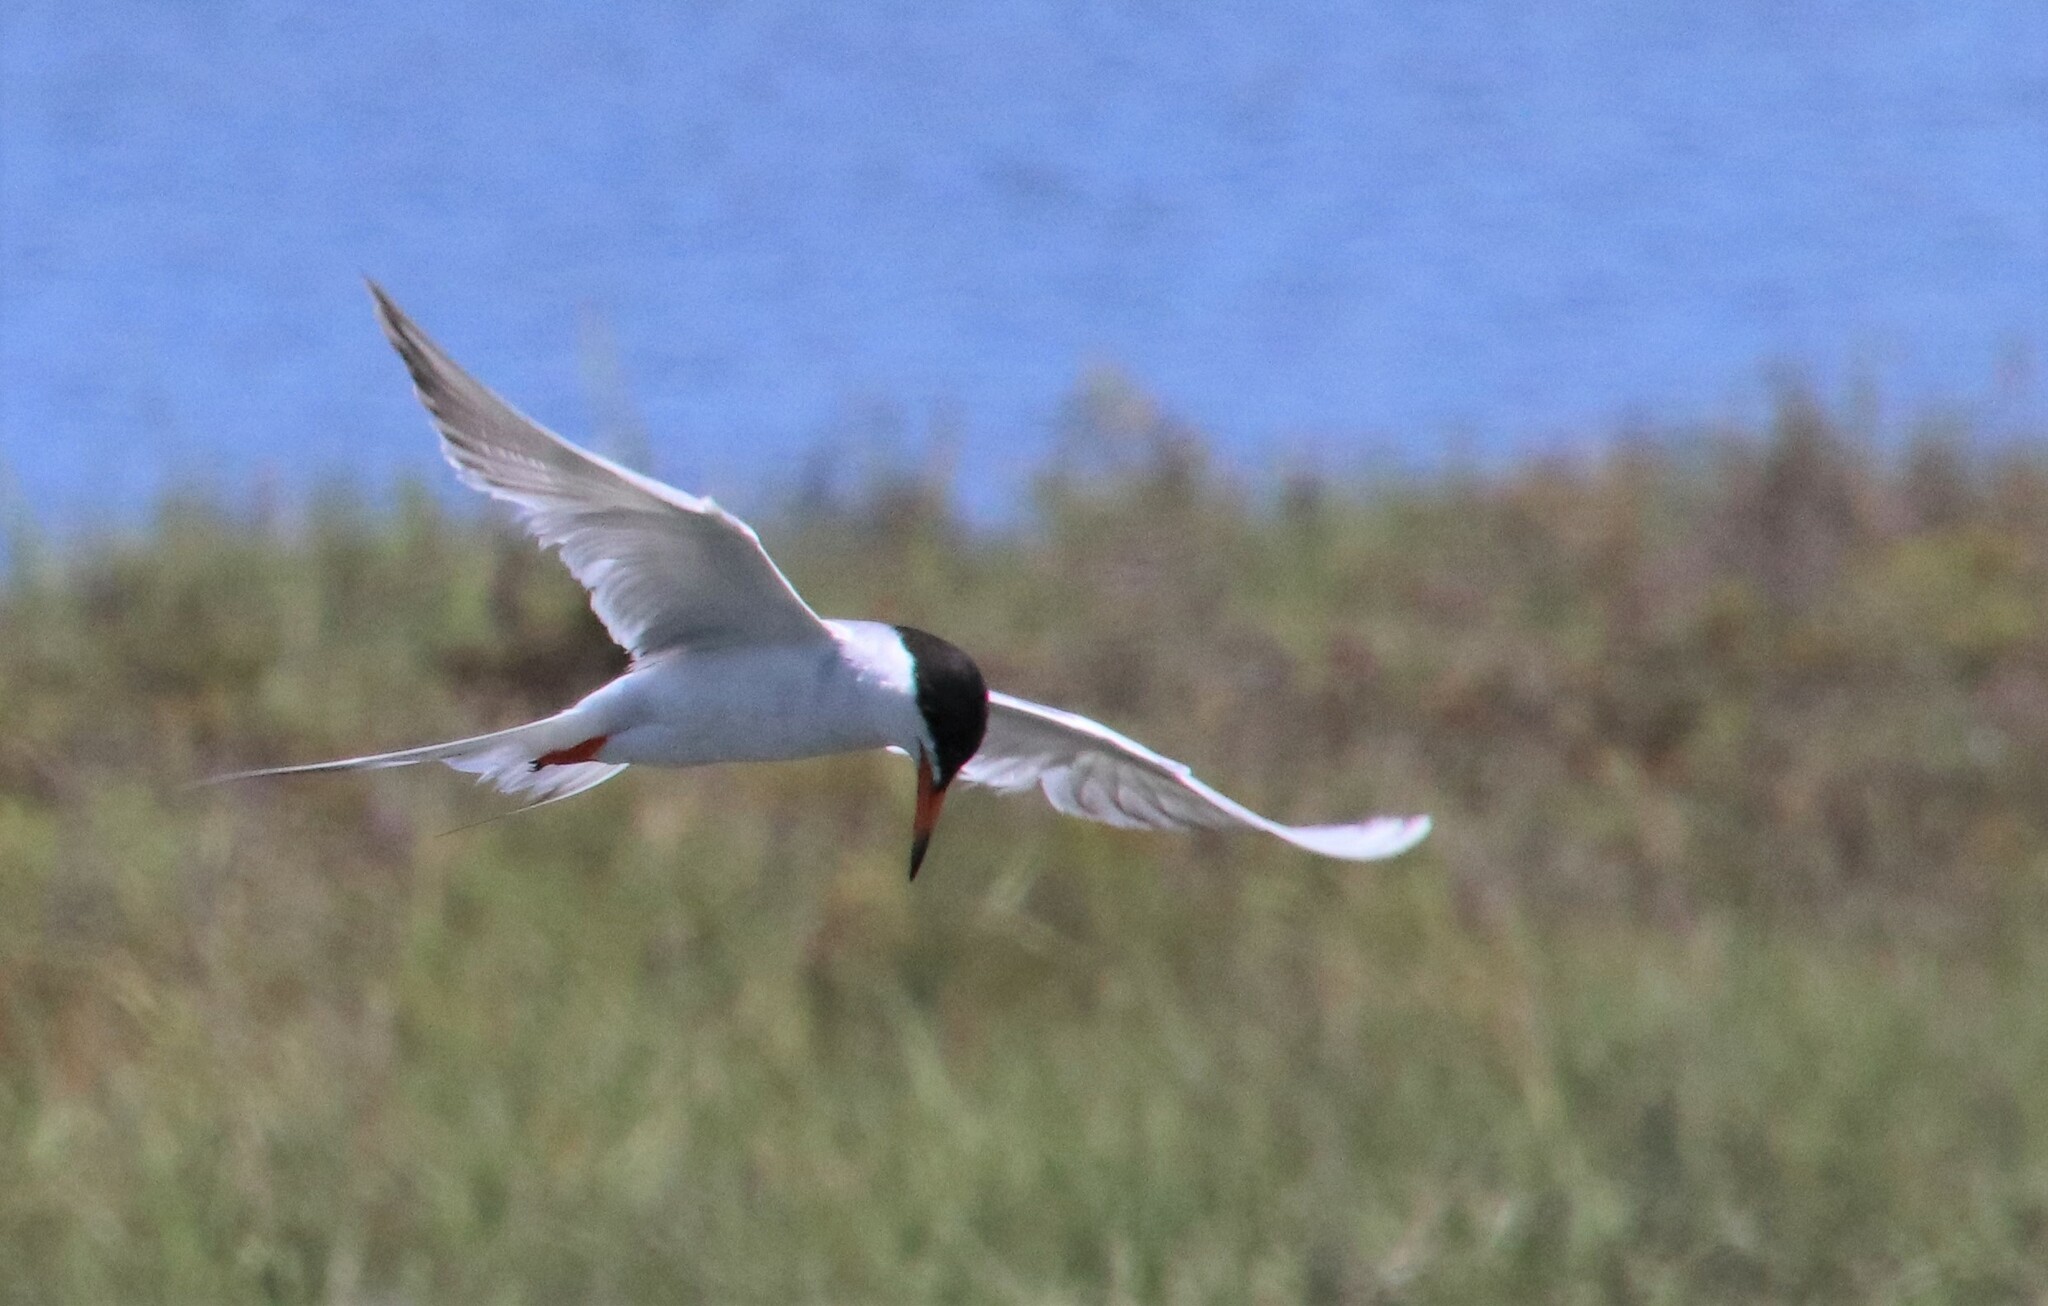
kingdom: Animalia
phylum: Chordata
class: Aves
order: Charadriiformes
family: Laridae
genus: Sterna
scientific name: Sterna forsteri
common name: Forster's tern
